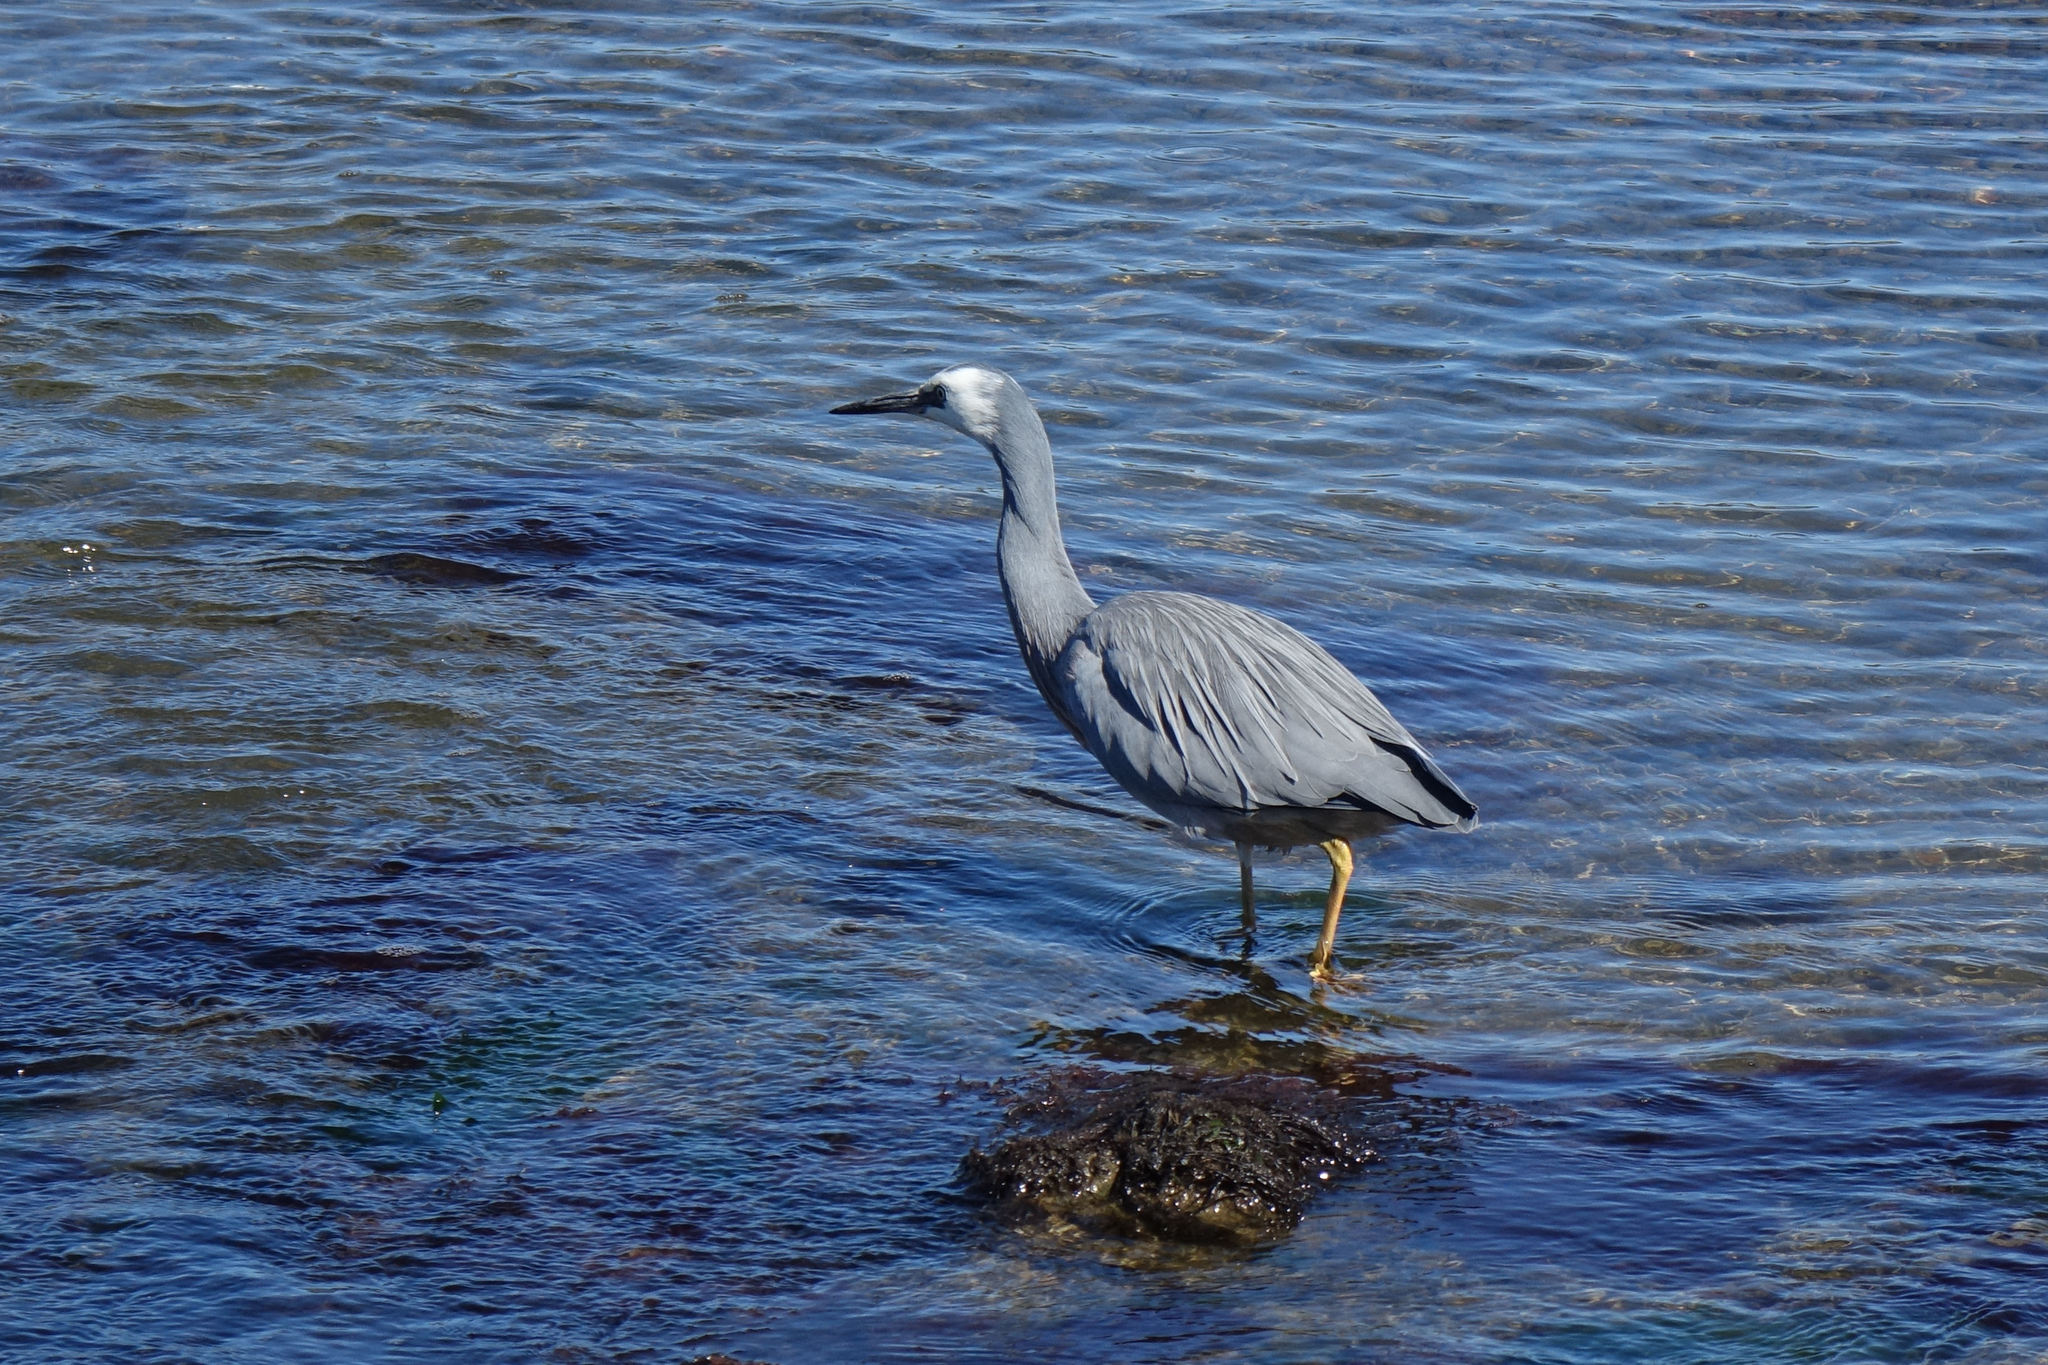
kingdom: Animalia
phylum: Chordata
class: Aves
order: Pelecaniformes
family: Ardeidae
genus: Egretta
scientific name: Egretta novaehollandiae
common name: White-faced heron
